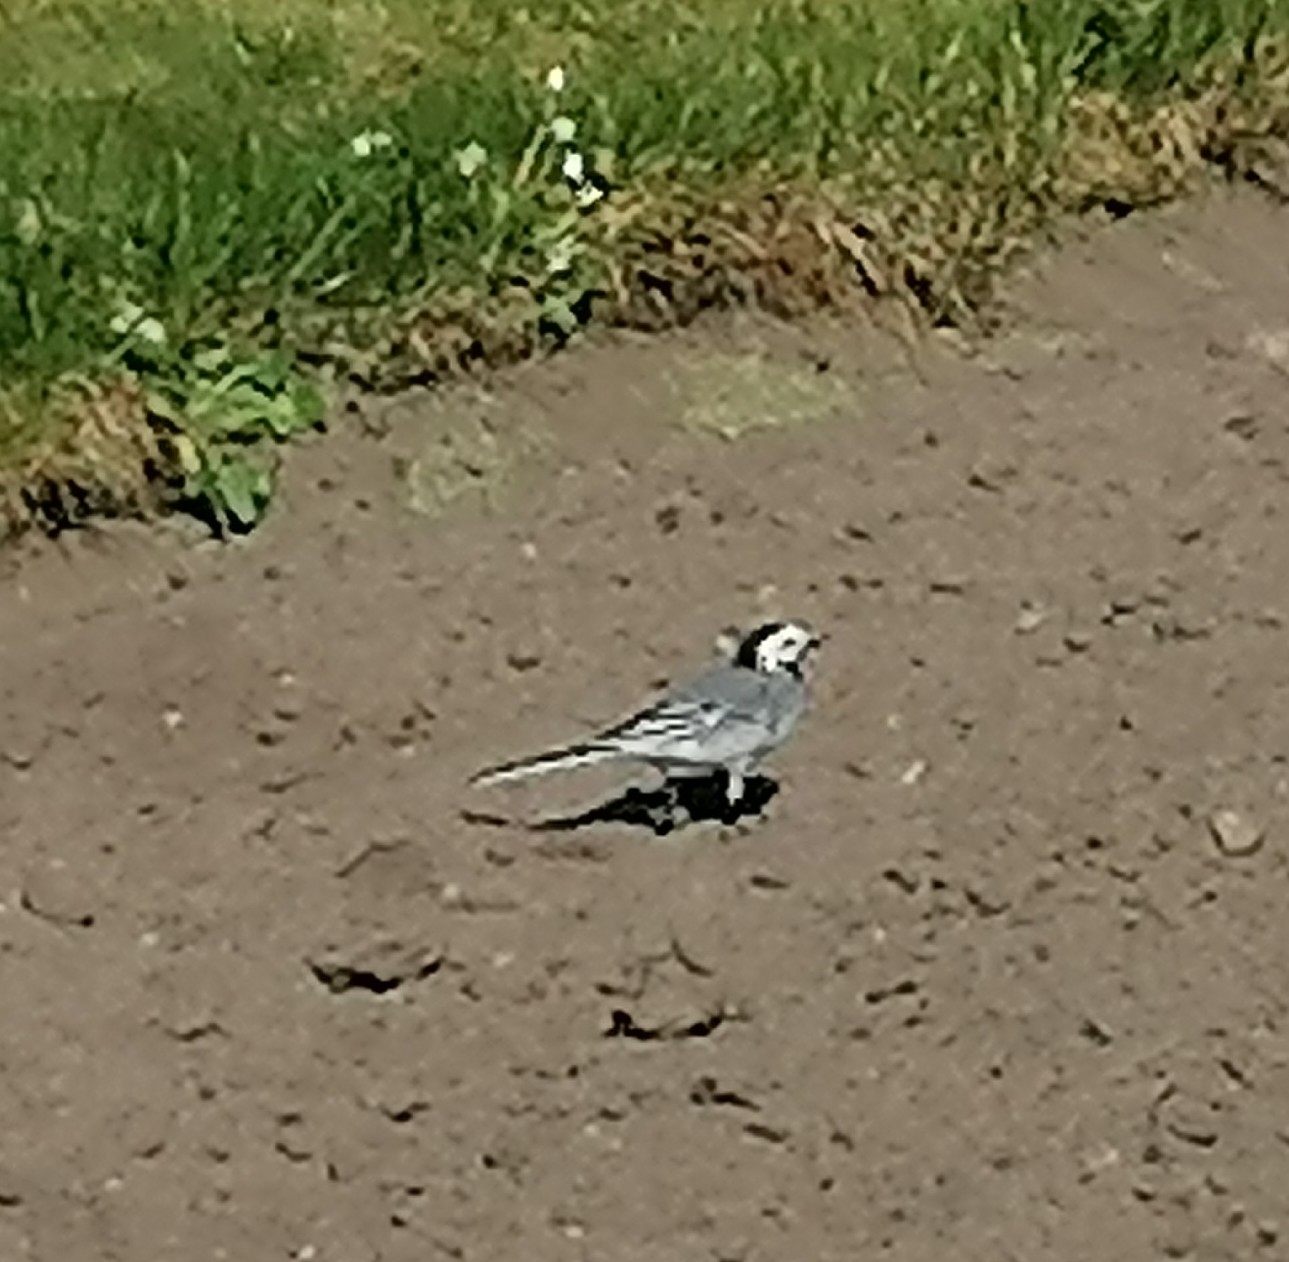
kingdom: Animalia
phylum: Chordata
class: Aves
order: Passeriformes
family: Motacillidae
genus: Motacilla
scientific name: Motacilla alba
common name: White wagtail
